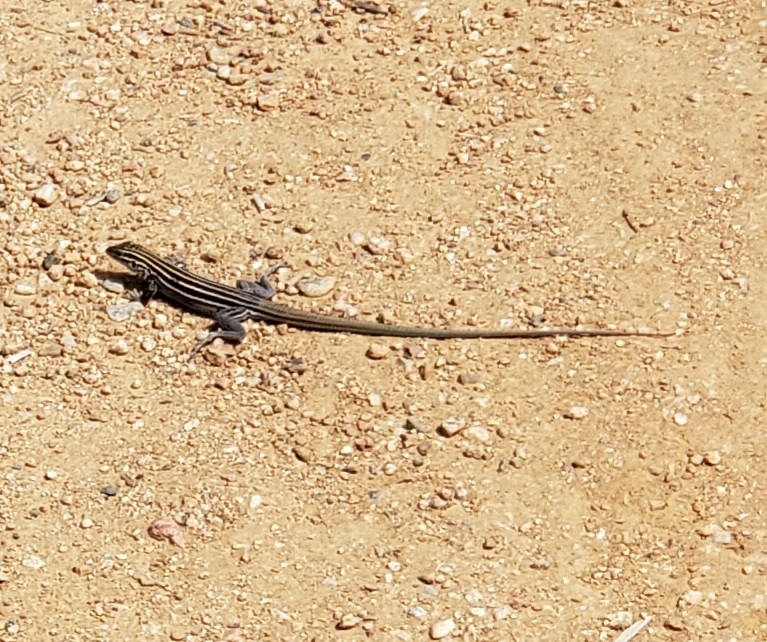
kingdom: Animalia
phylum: Chordata
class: Squamata
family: Teiidae
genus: Aspidoscelis
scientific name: Aspidoscelis uniparens
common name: Desert grassland whiptail
